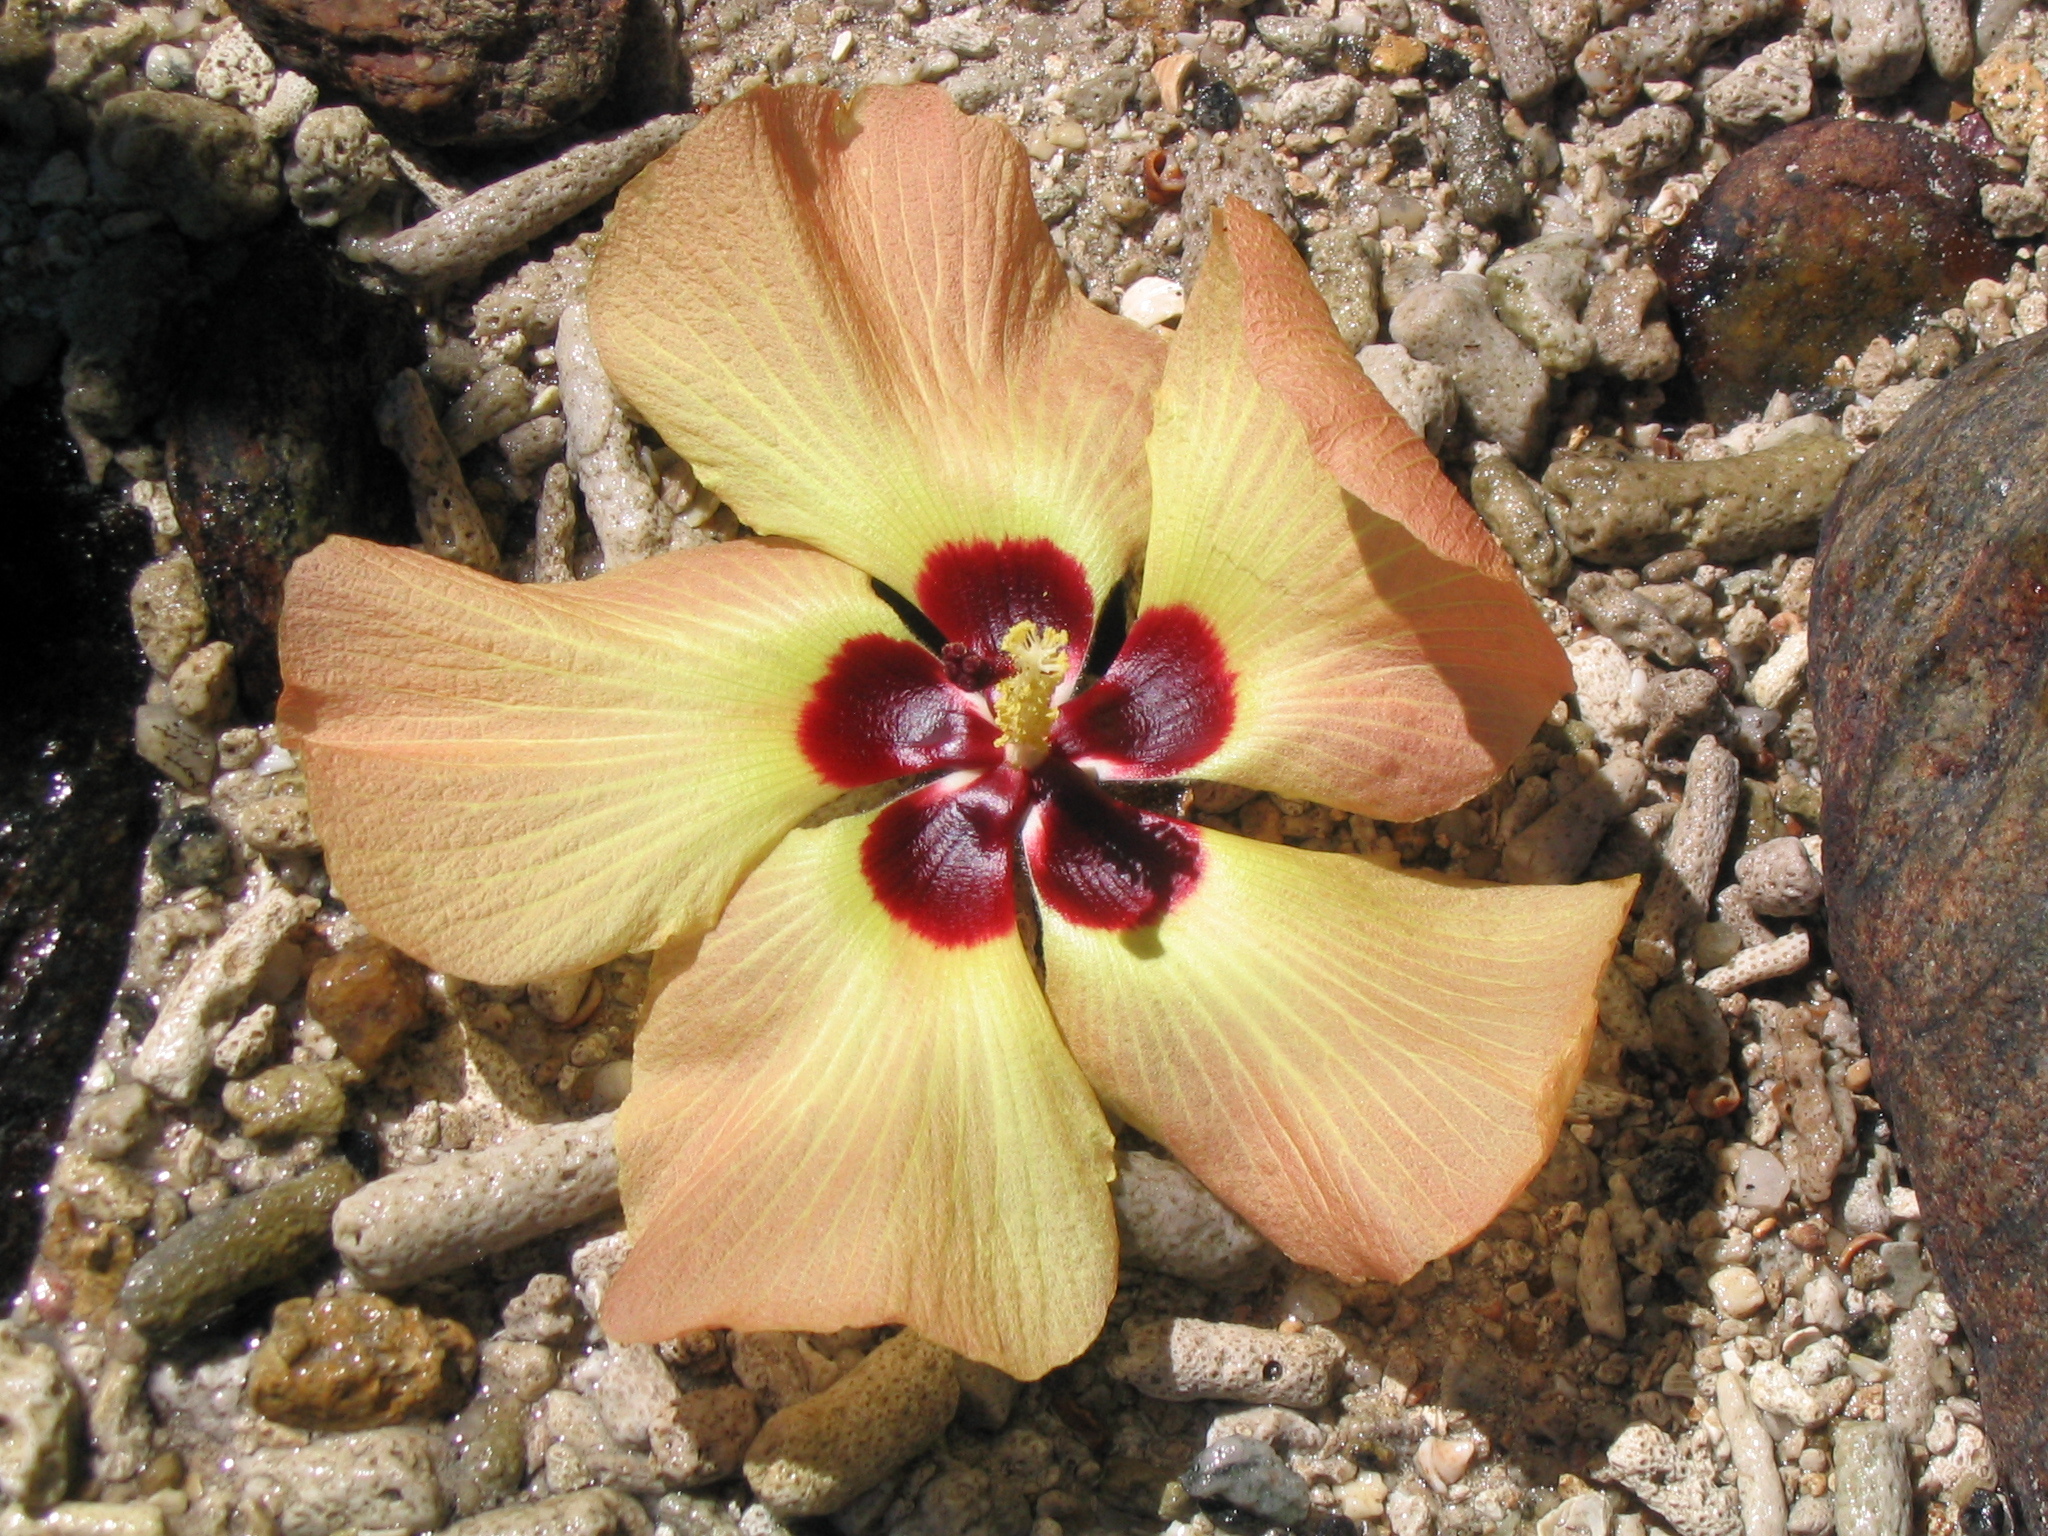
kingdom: Plantae
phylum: Tracheophyta
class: Magnoliopsida
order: Malvales
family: Malvaceae
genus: Talipariti
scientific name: Talipariti tiliaceum
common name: Sea hibiscus
